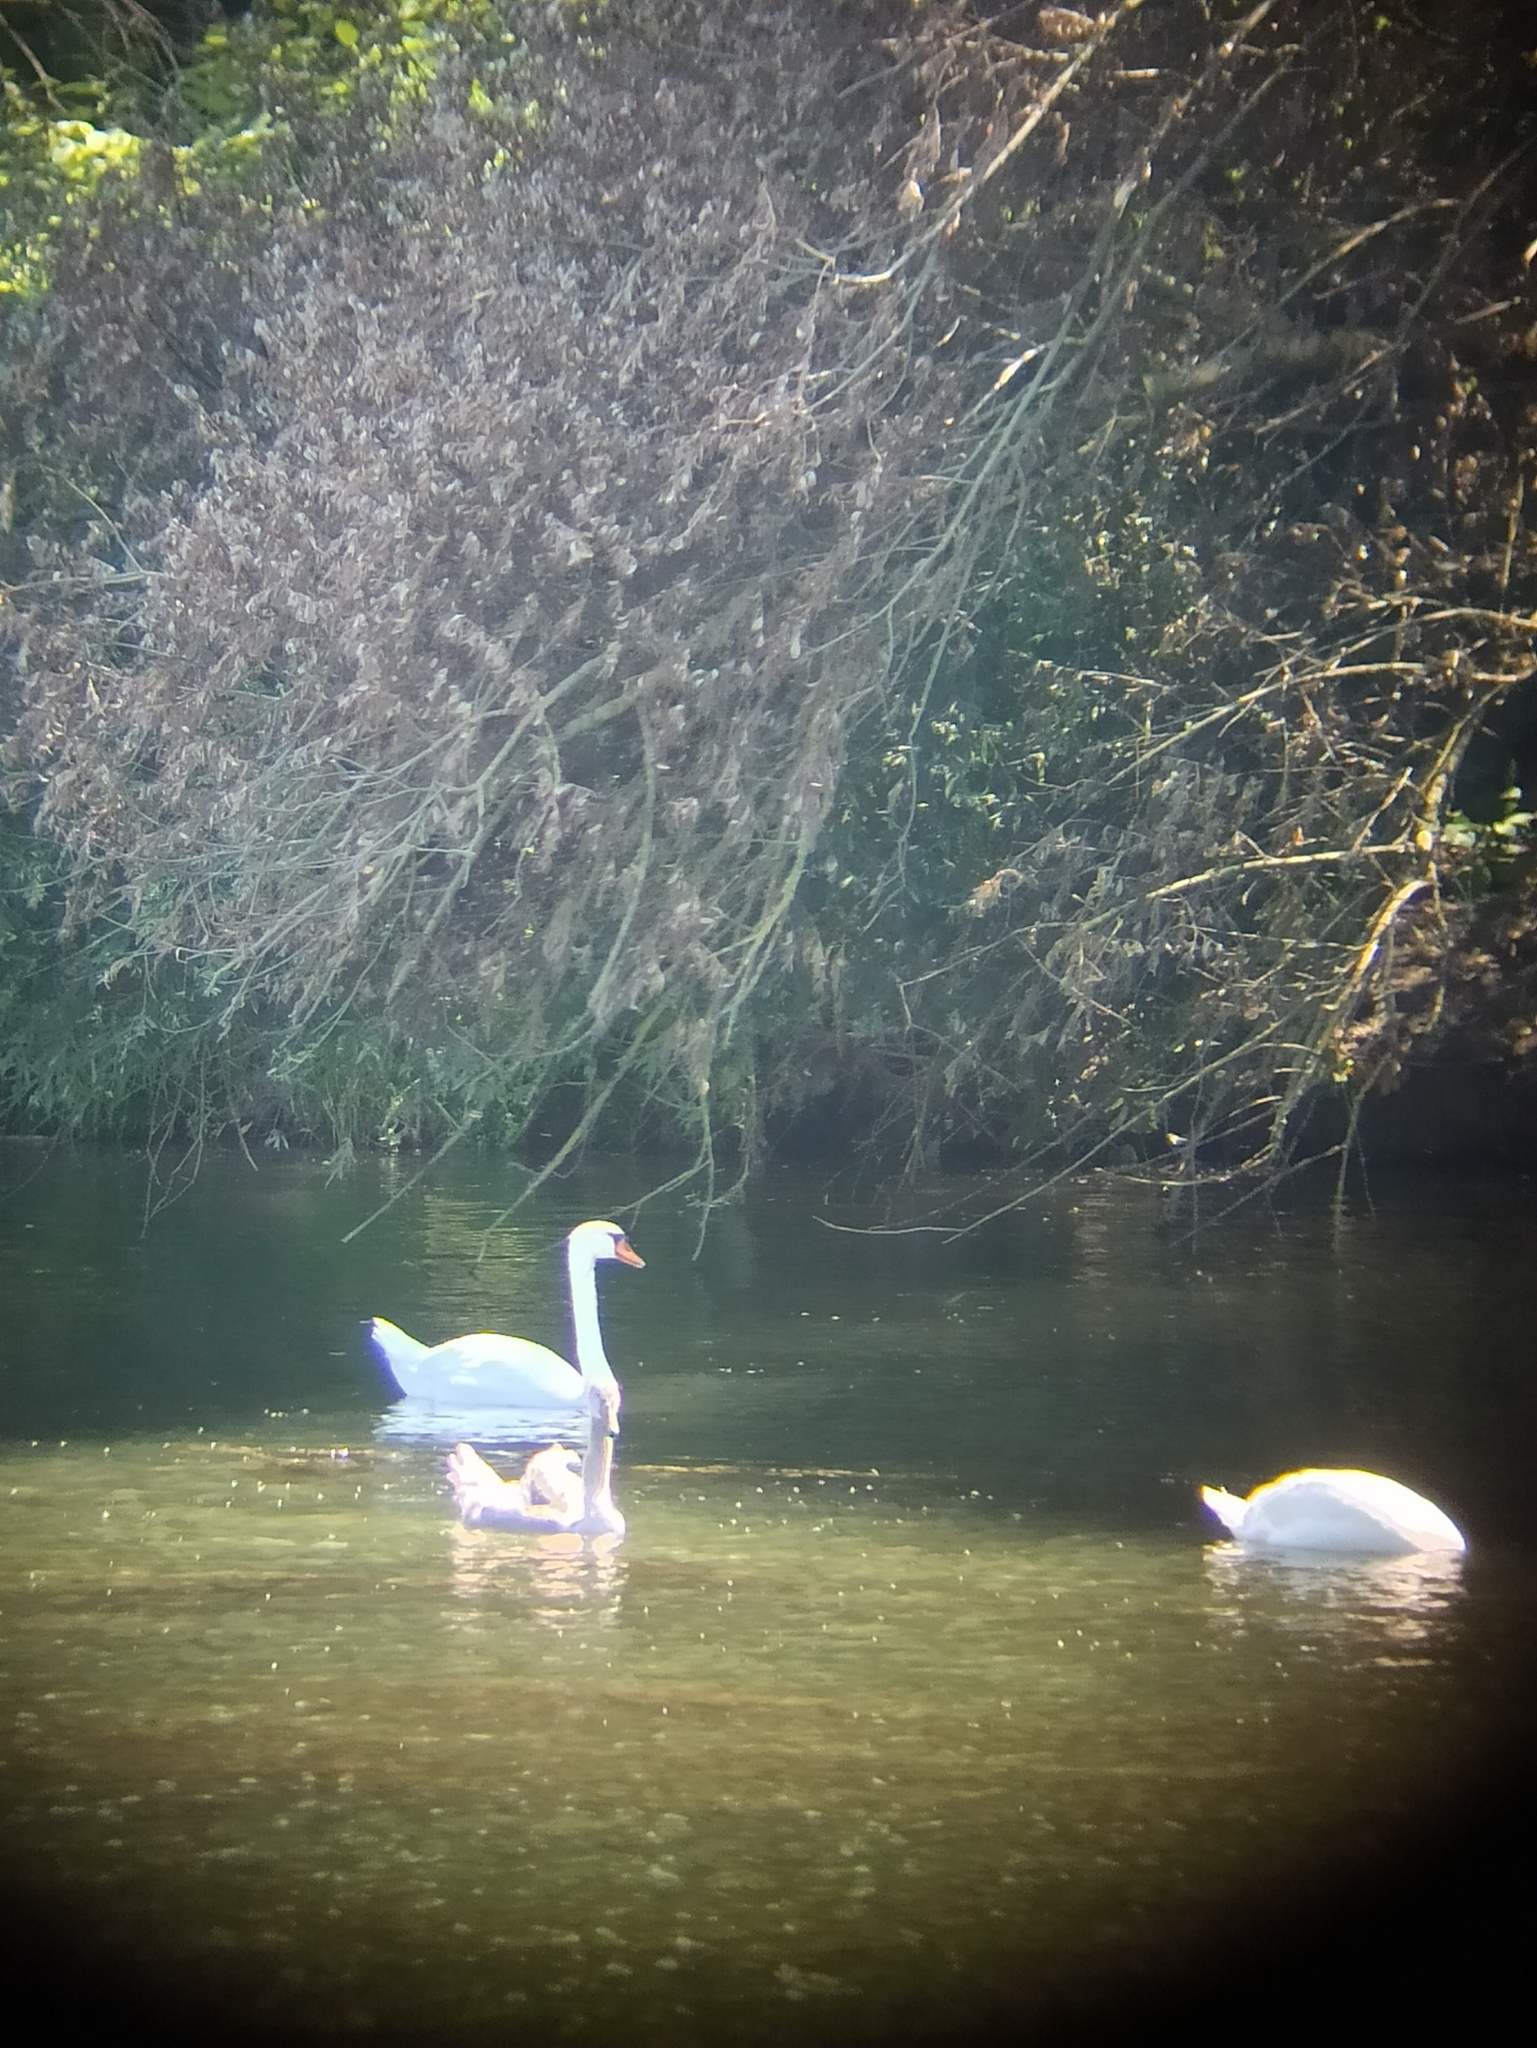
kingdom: Animalia
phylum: Chordata
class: Aves
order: Anseriformes
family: Anatidae
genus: Cygnus
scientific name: Cygnus olor
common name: Mute swan
